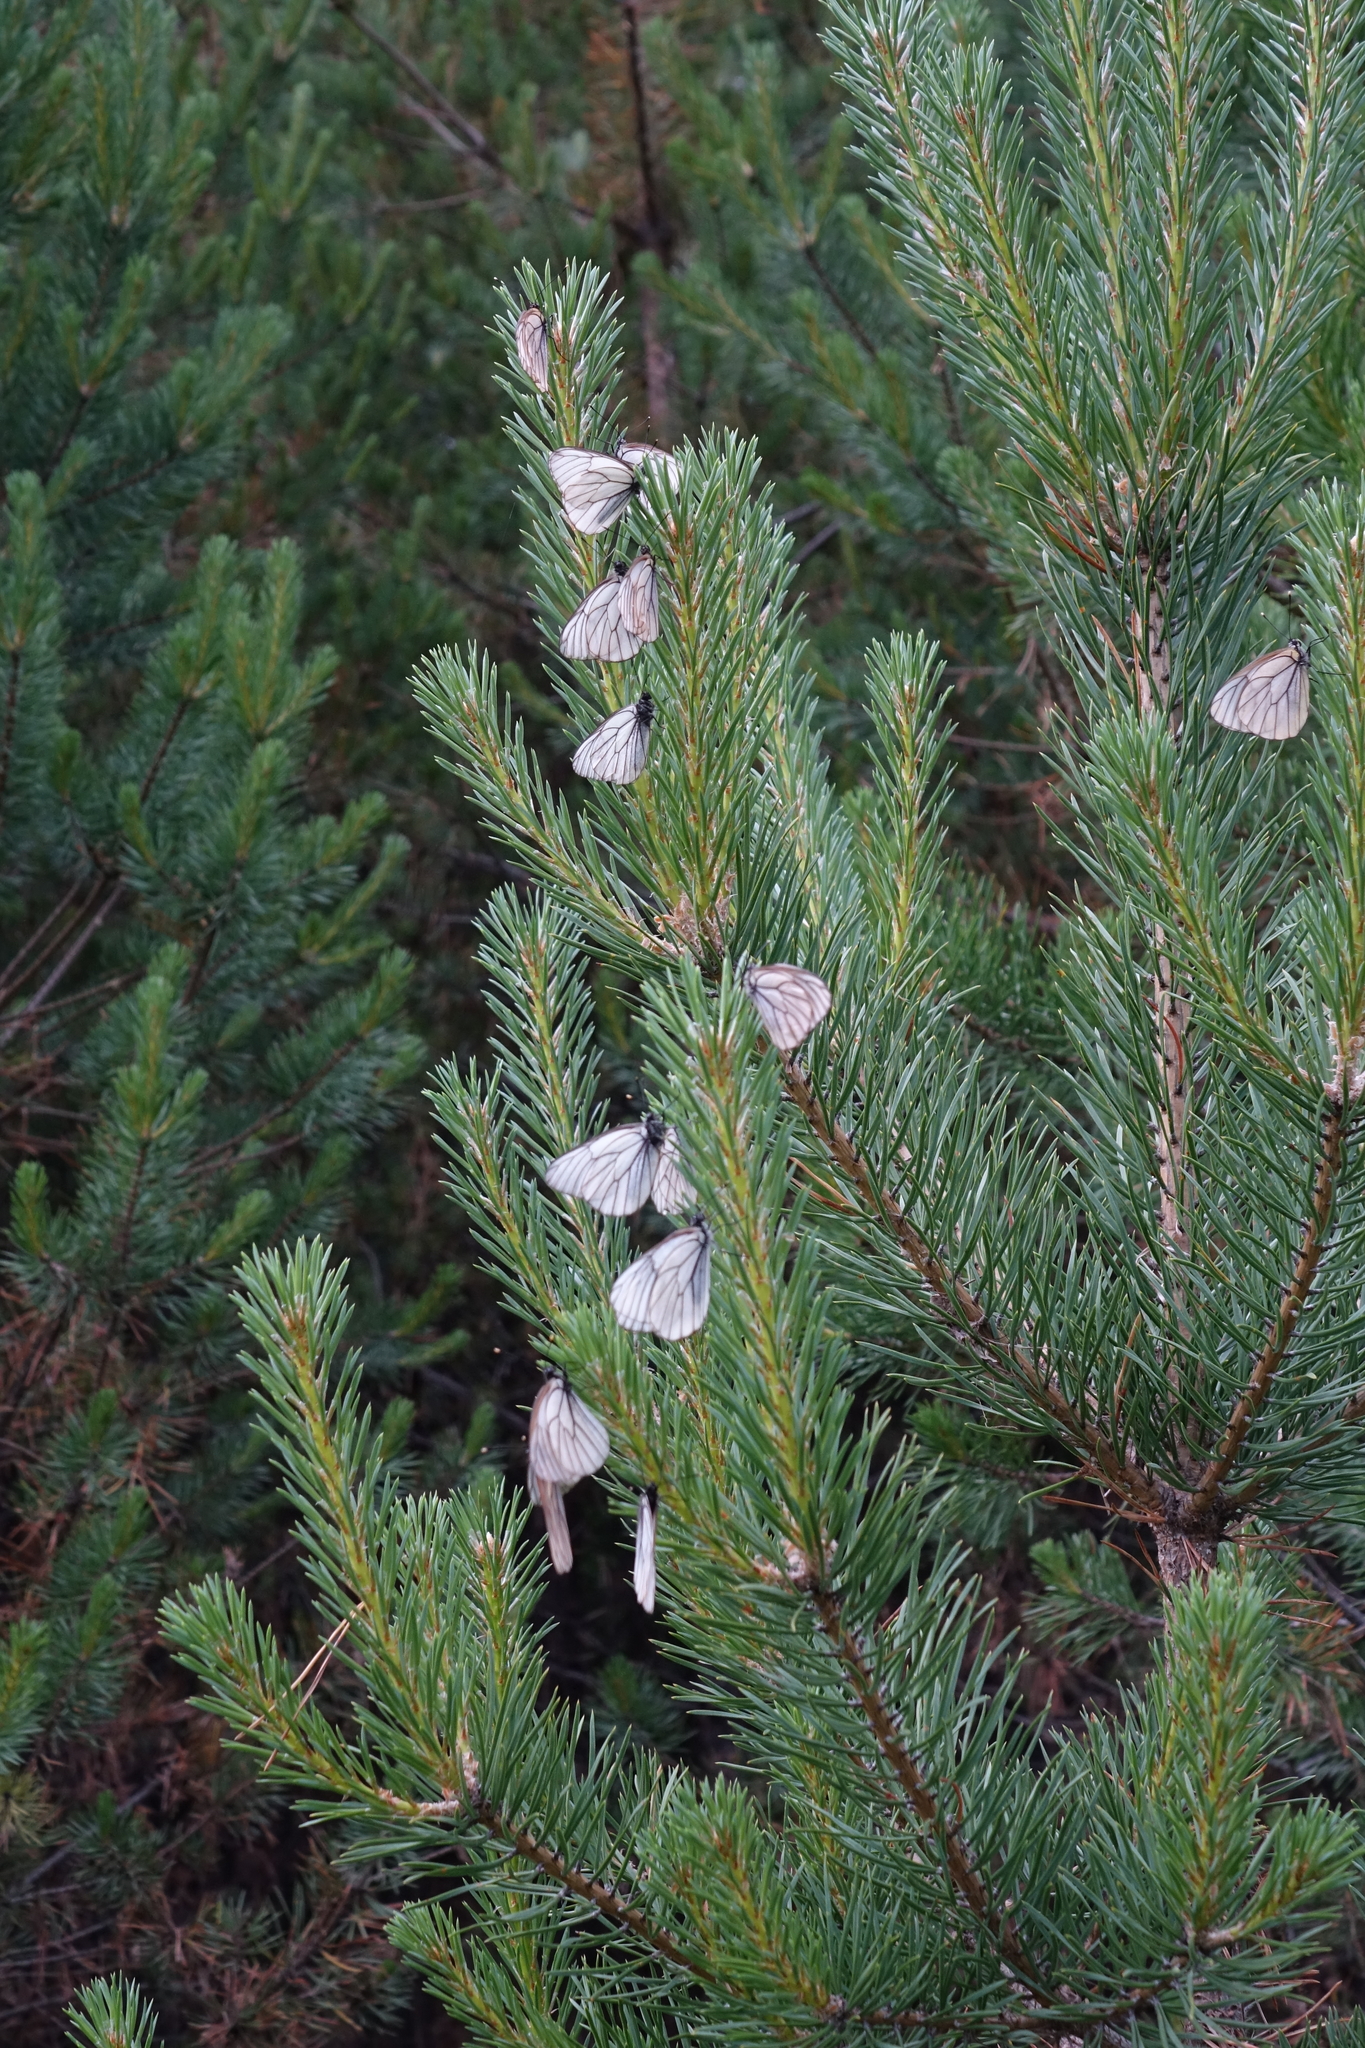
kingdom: Animalia
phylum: Arthropoda
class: Insecta
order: Lepidoptera
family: Pieridae
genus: Aporia
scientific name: Aporia crataegi
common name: Black-veined white
